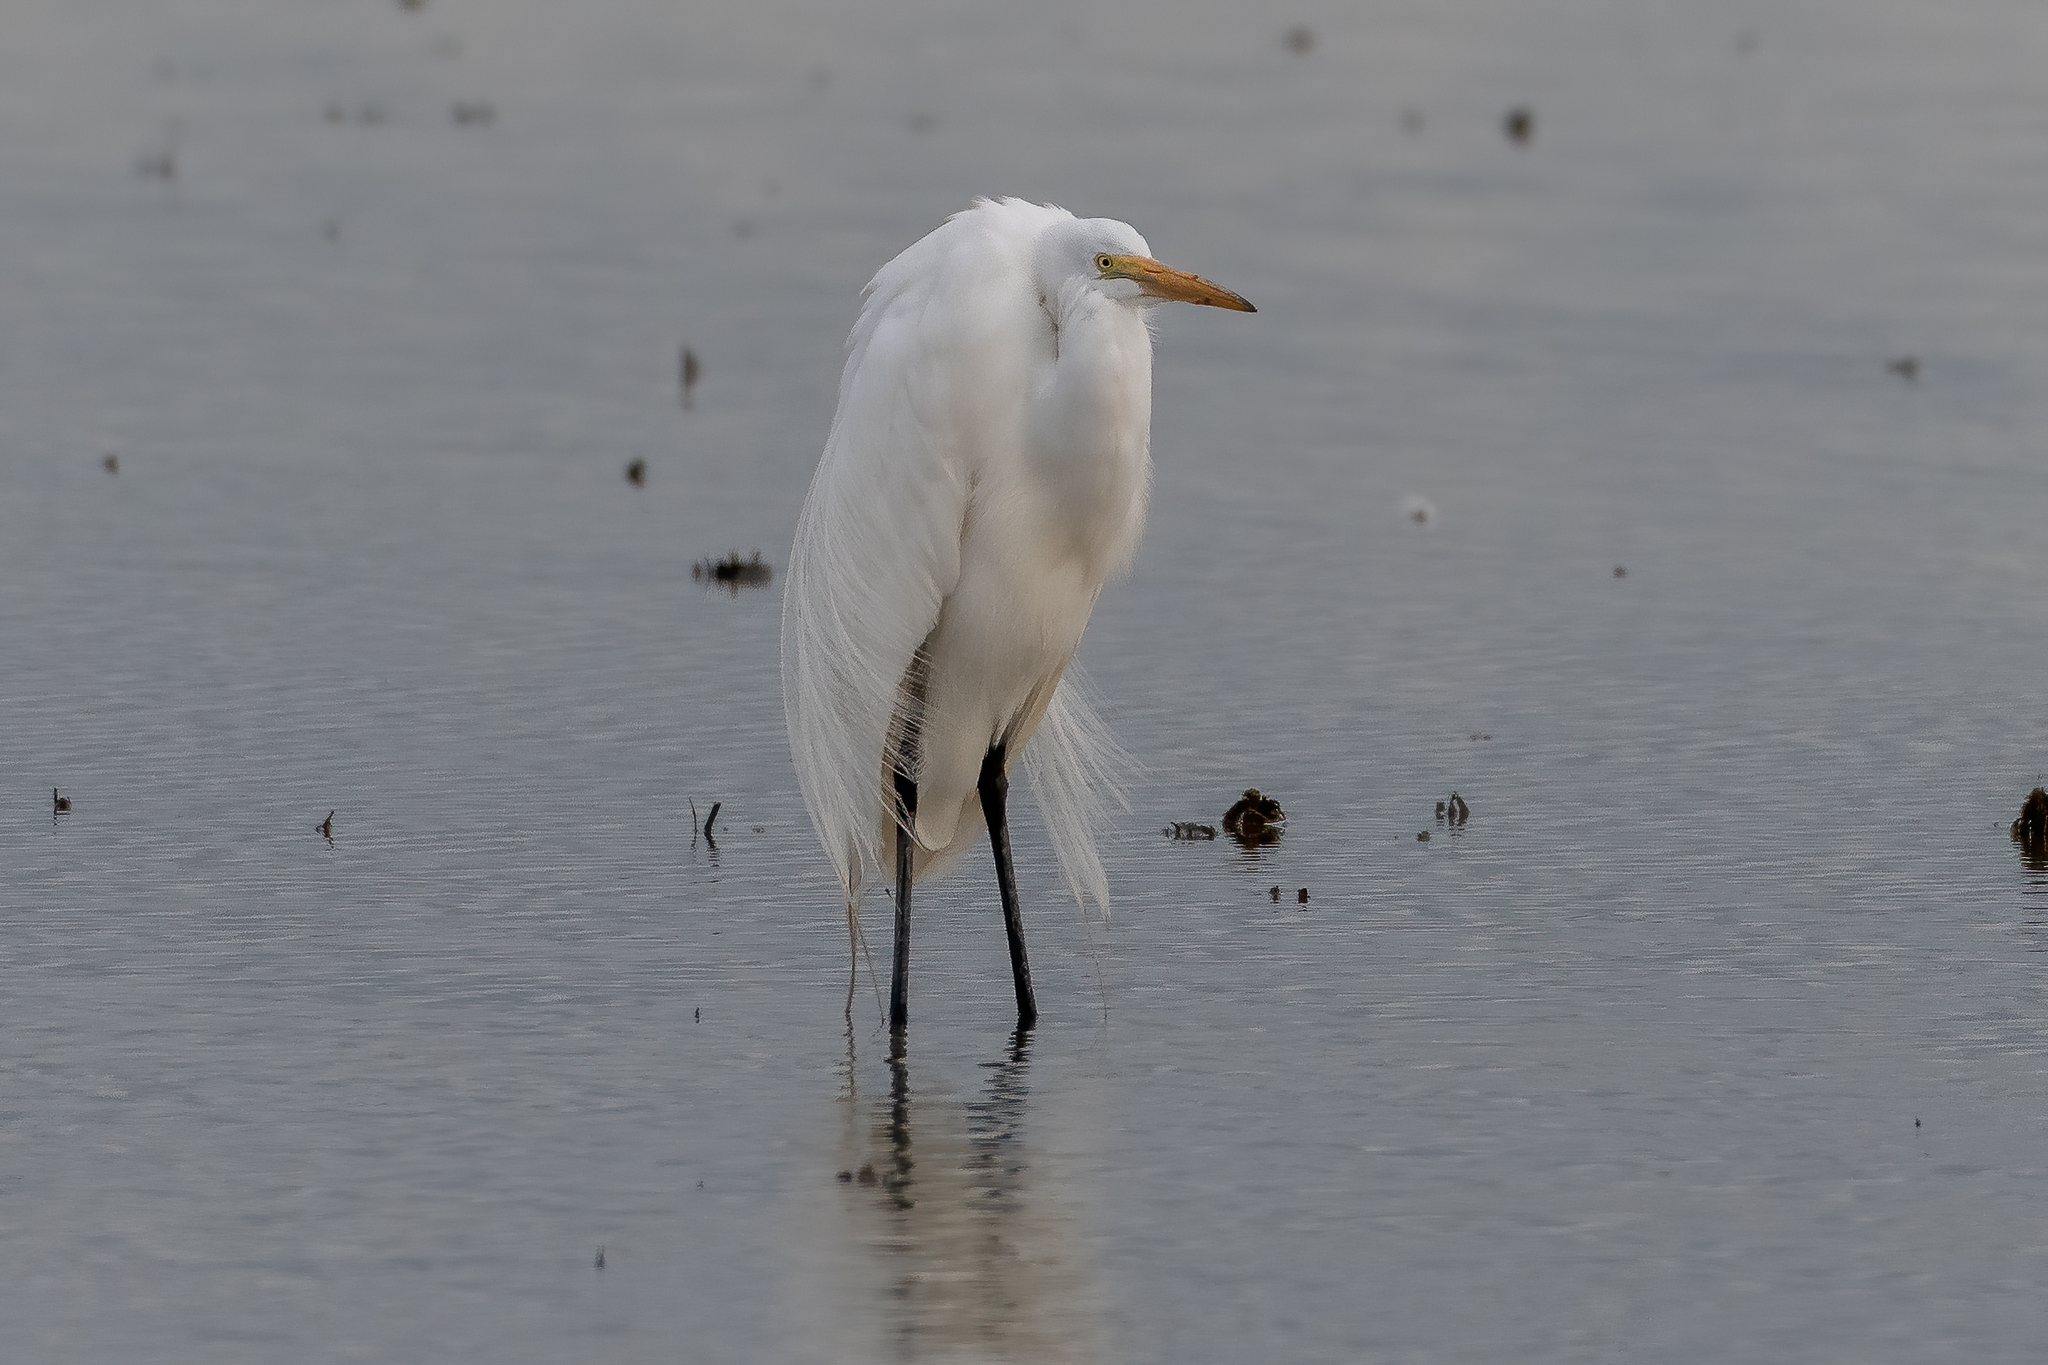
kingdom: Animalia
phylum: Chordata
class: Aves
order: Pelecaniformes
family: Ardeidae
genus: Ardea
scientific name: Ardea alba
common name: Great egret
